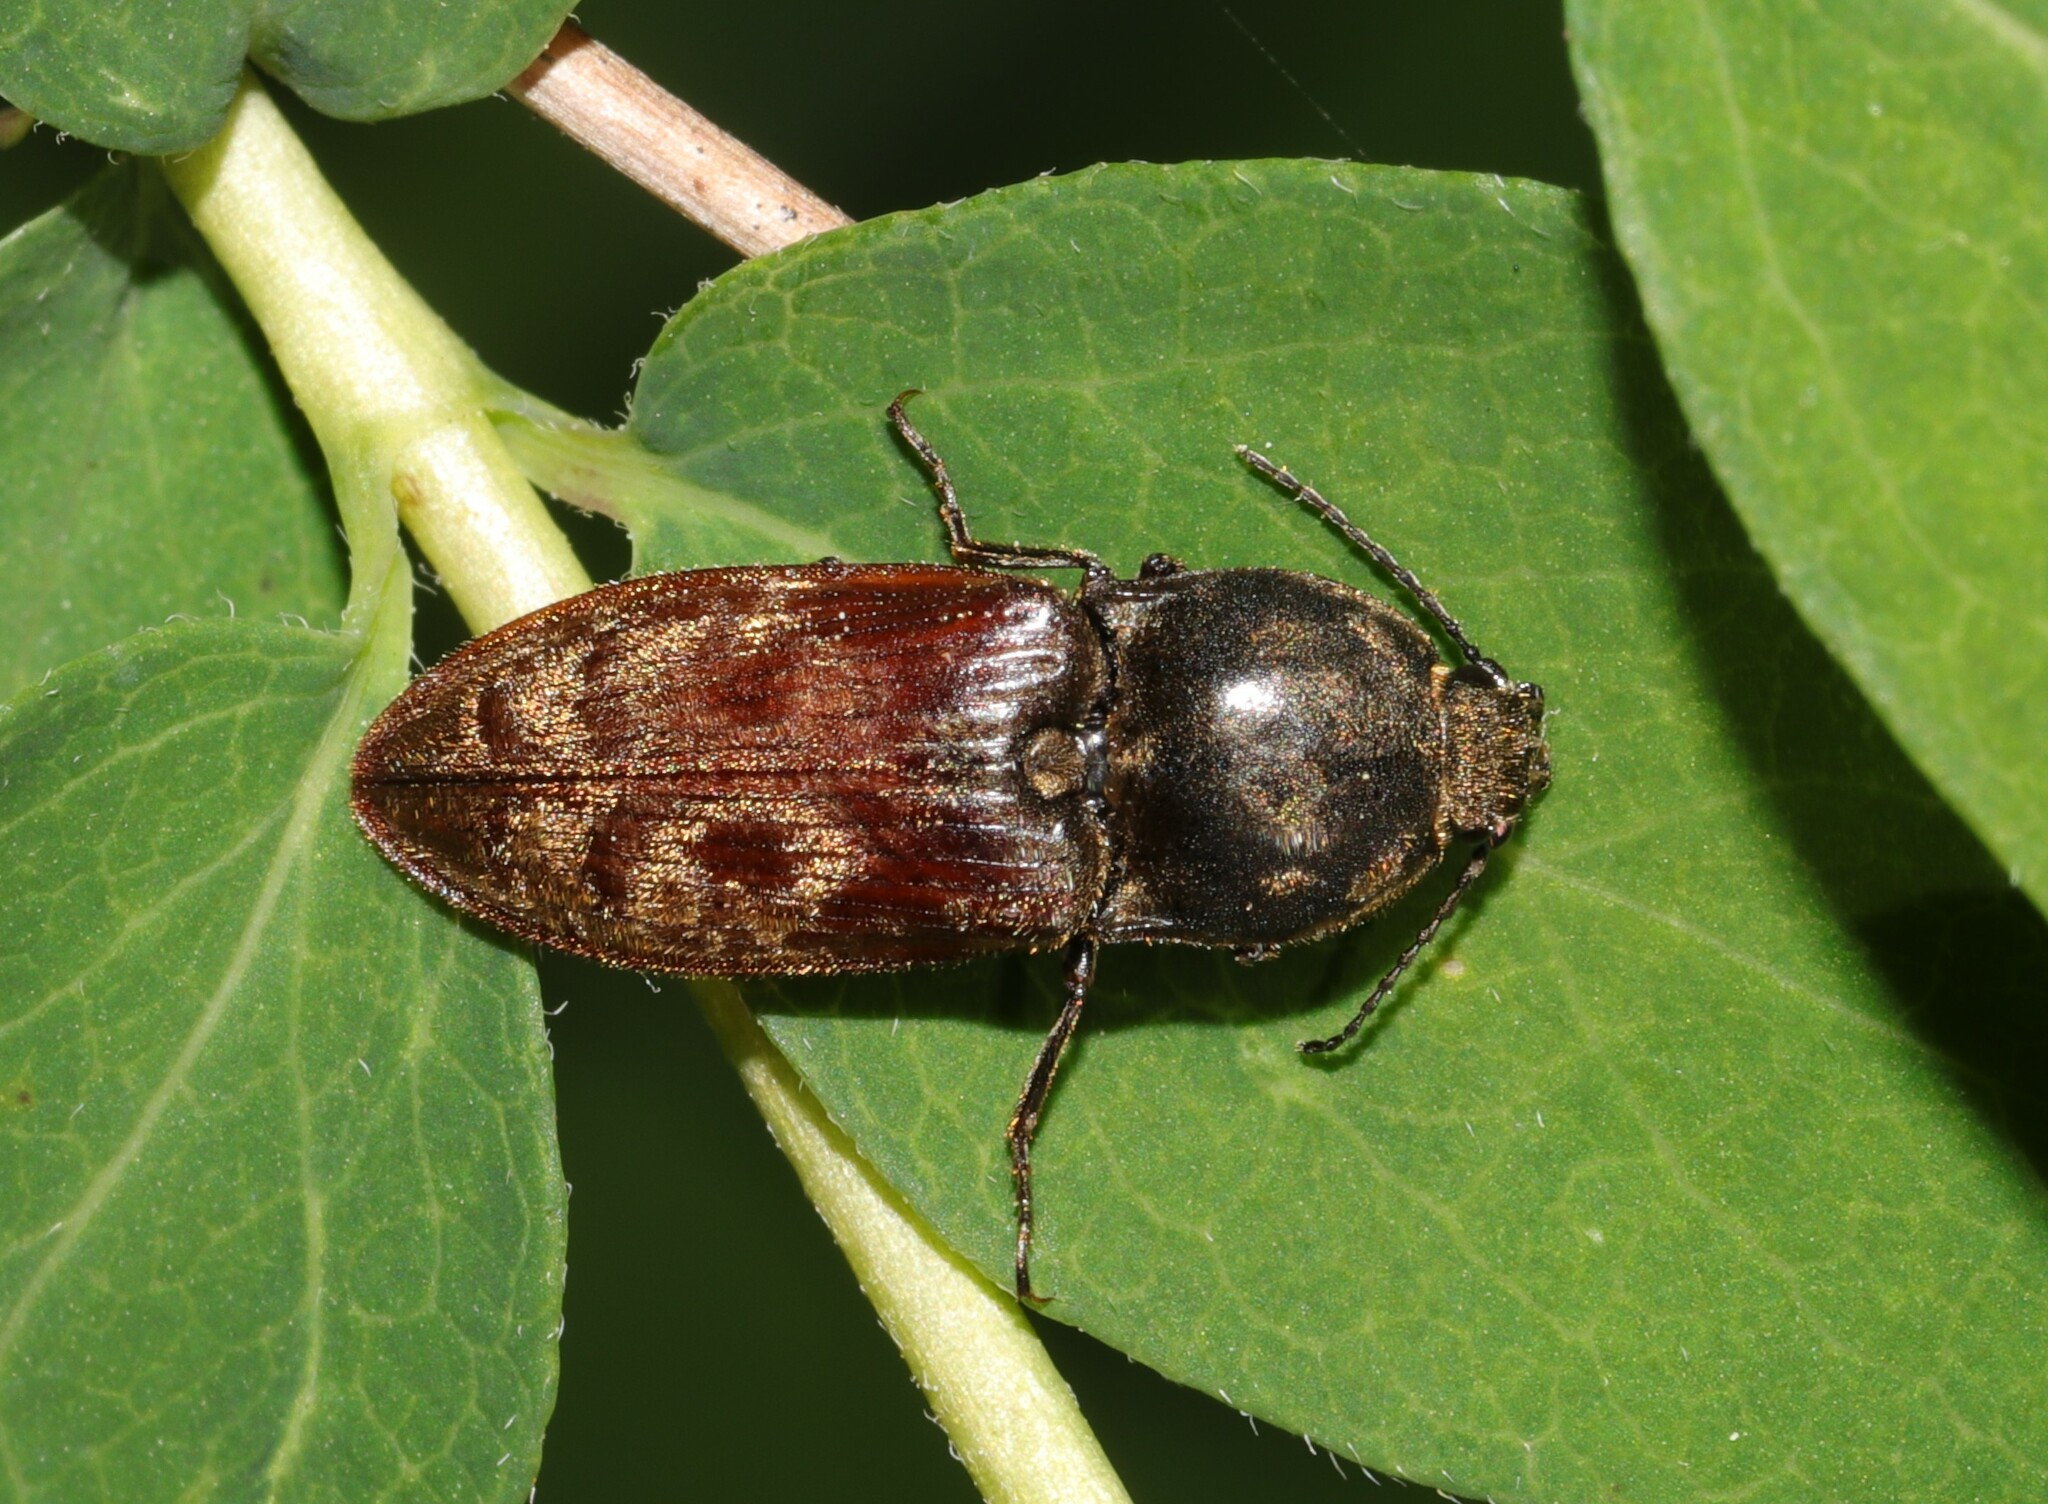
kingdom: Animalia
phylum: Arthropoda
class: Insecta
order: Coleoptera
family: Elateridae
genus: Prosternon
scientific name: Prosternon bombycinum
